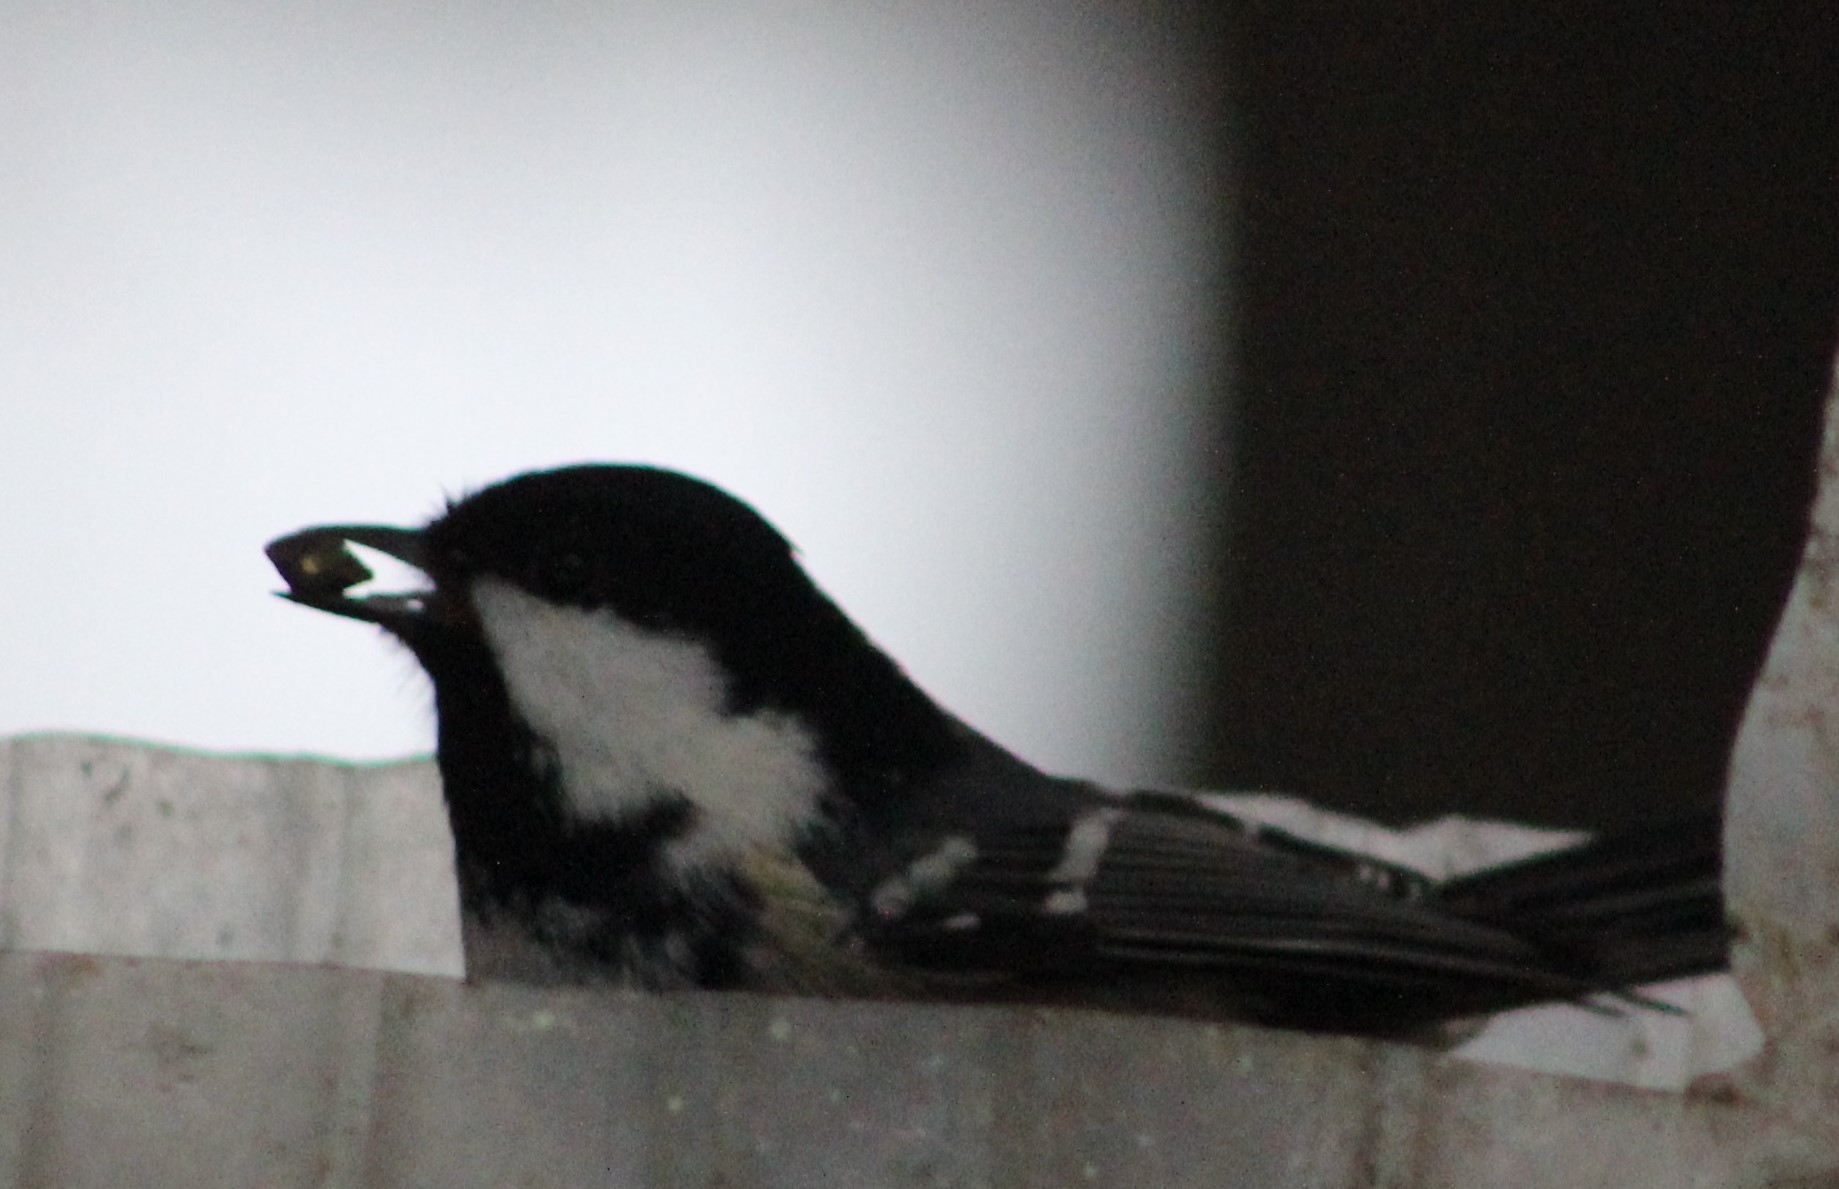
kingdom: Animalia
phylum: Chordata
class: Aves
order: Passeriformes
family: Paridae
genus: Periparus
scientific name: Periparus ater
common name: Coal tit
